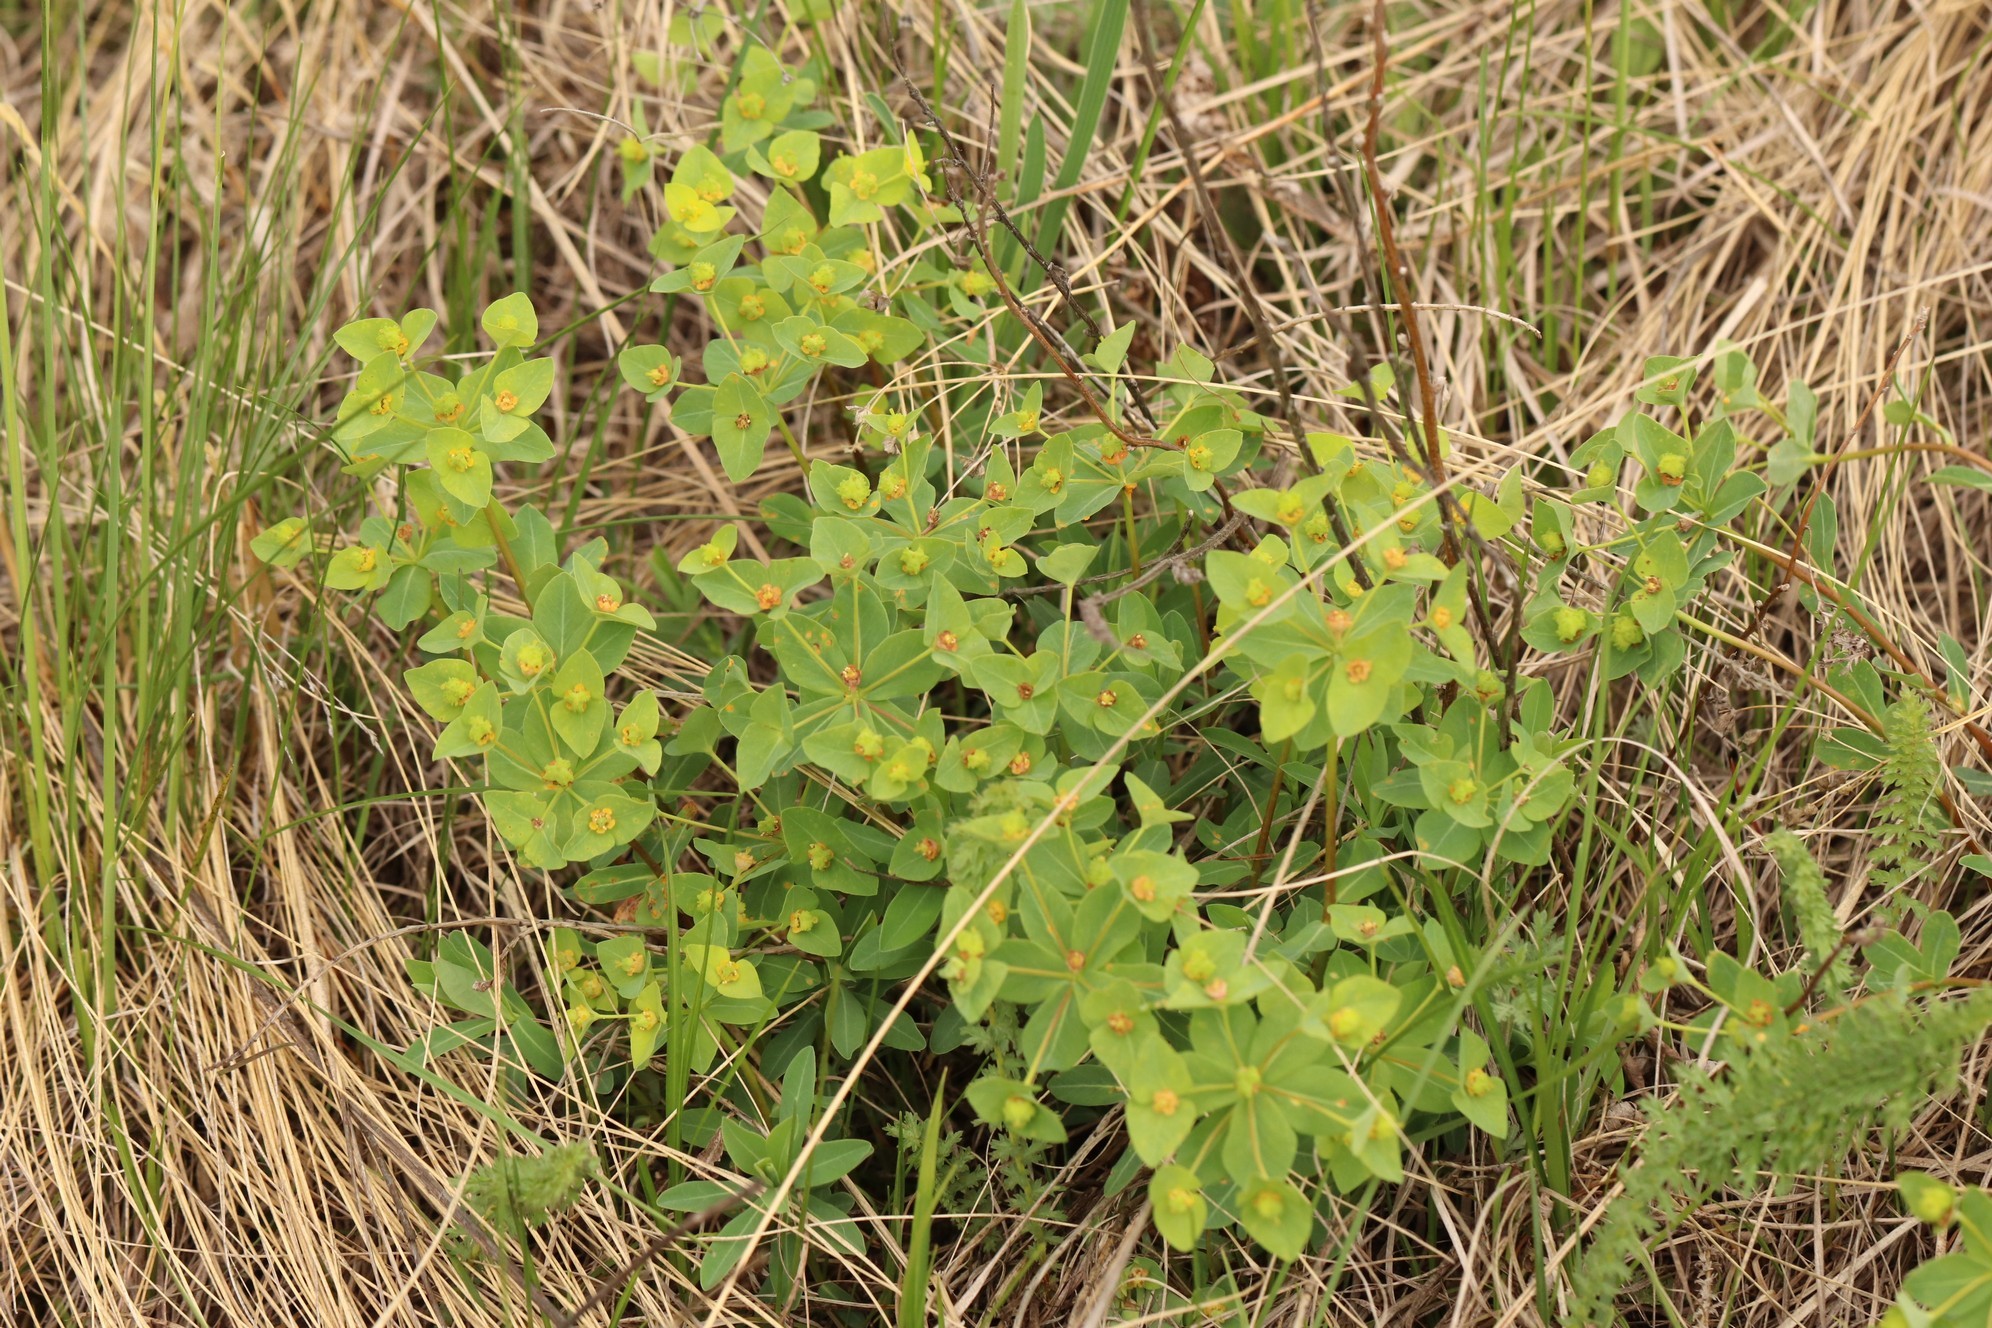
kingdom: Plantae
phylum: Tracheophyta
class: Magnoliopsida
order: Malpighiales
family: Euphorbiaceae
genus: Euphorbia
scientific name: Euphorbia altaica
